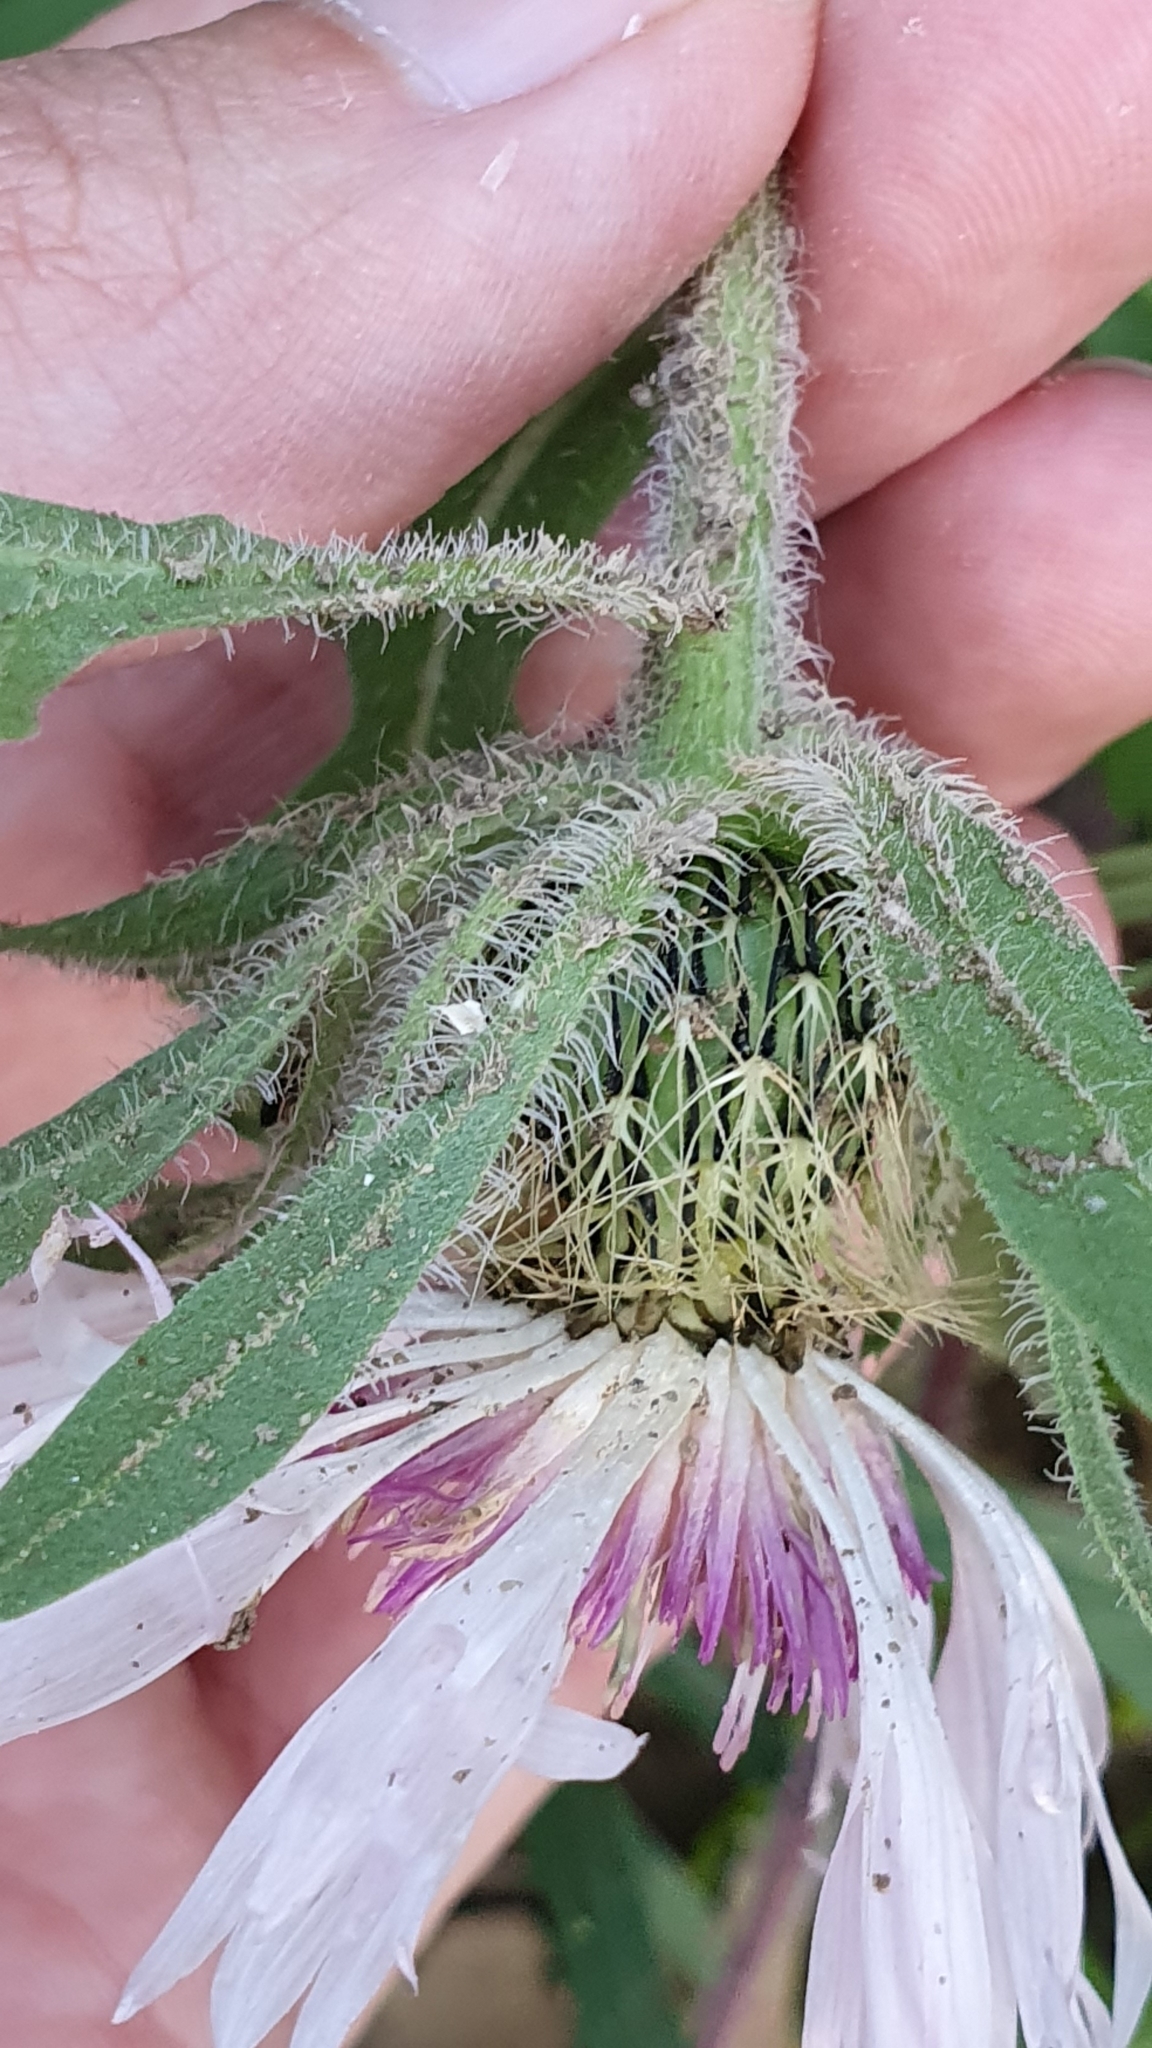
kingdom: Plantae
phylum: Tracheophyta
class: Magnoliopsida
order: Asterales
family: Asteraceae
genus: Centaurea
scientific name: Centaurea pullata
